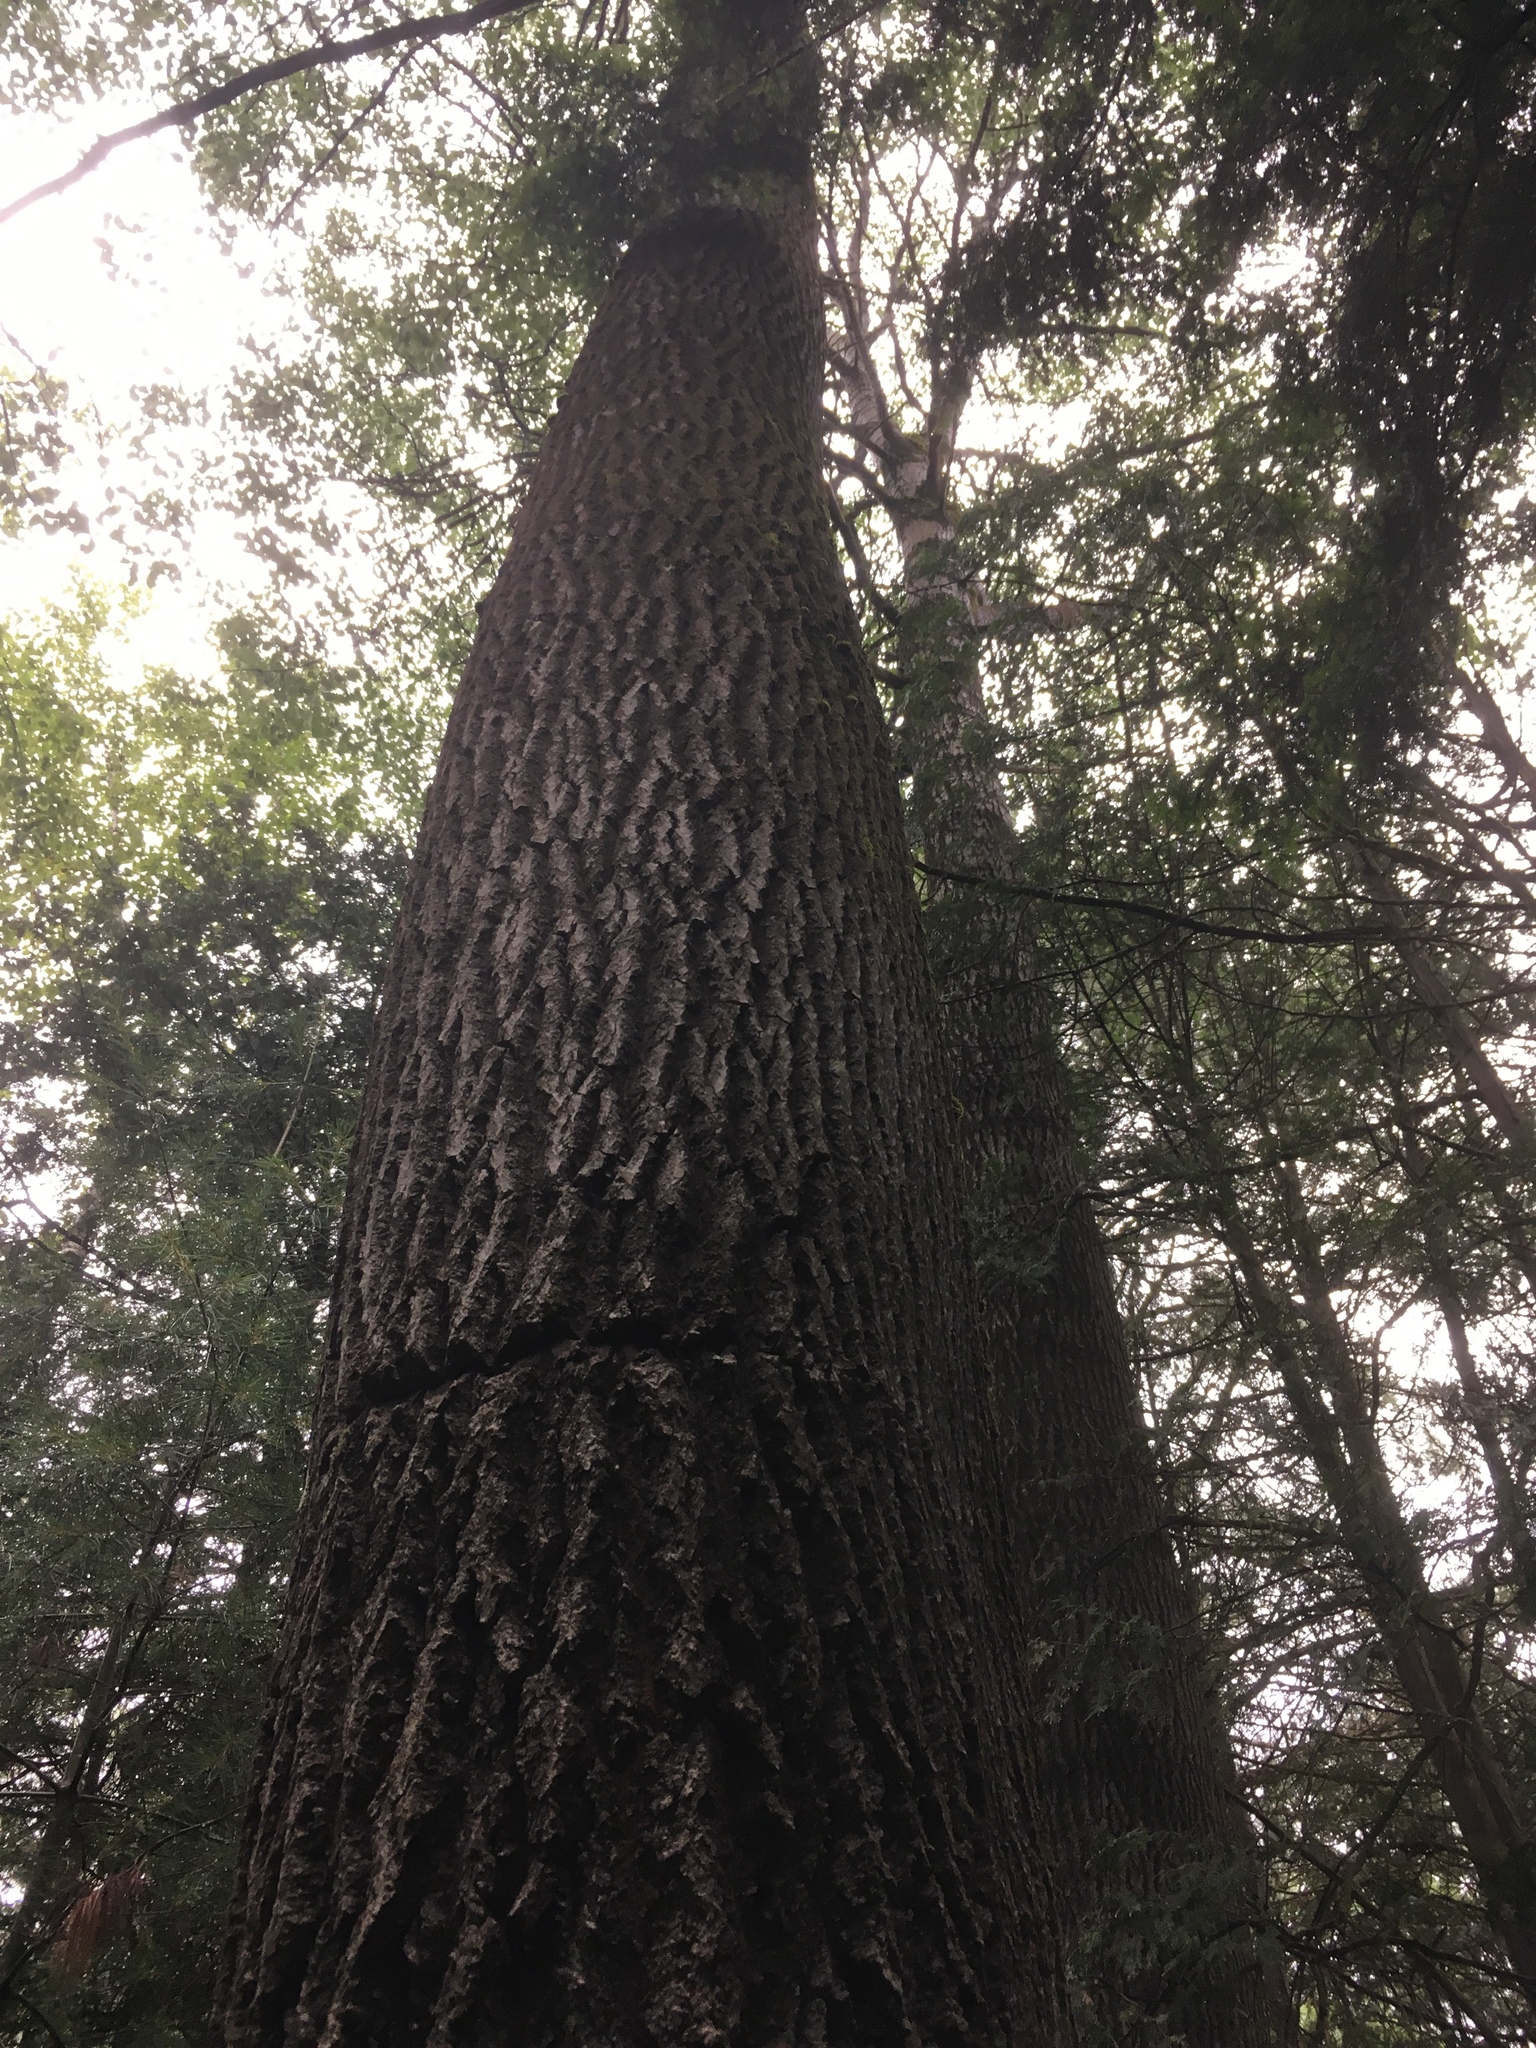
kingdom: Plantae
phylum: Tracheophyta
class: Magnoliopsida
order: Malpighiales
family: Salicaceae
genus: Populus
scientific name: Populus grandidentata
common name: Bigtooth aspen
